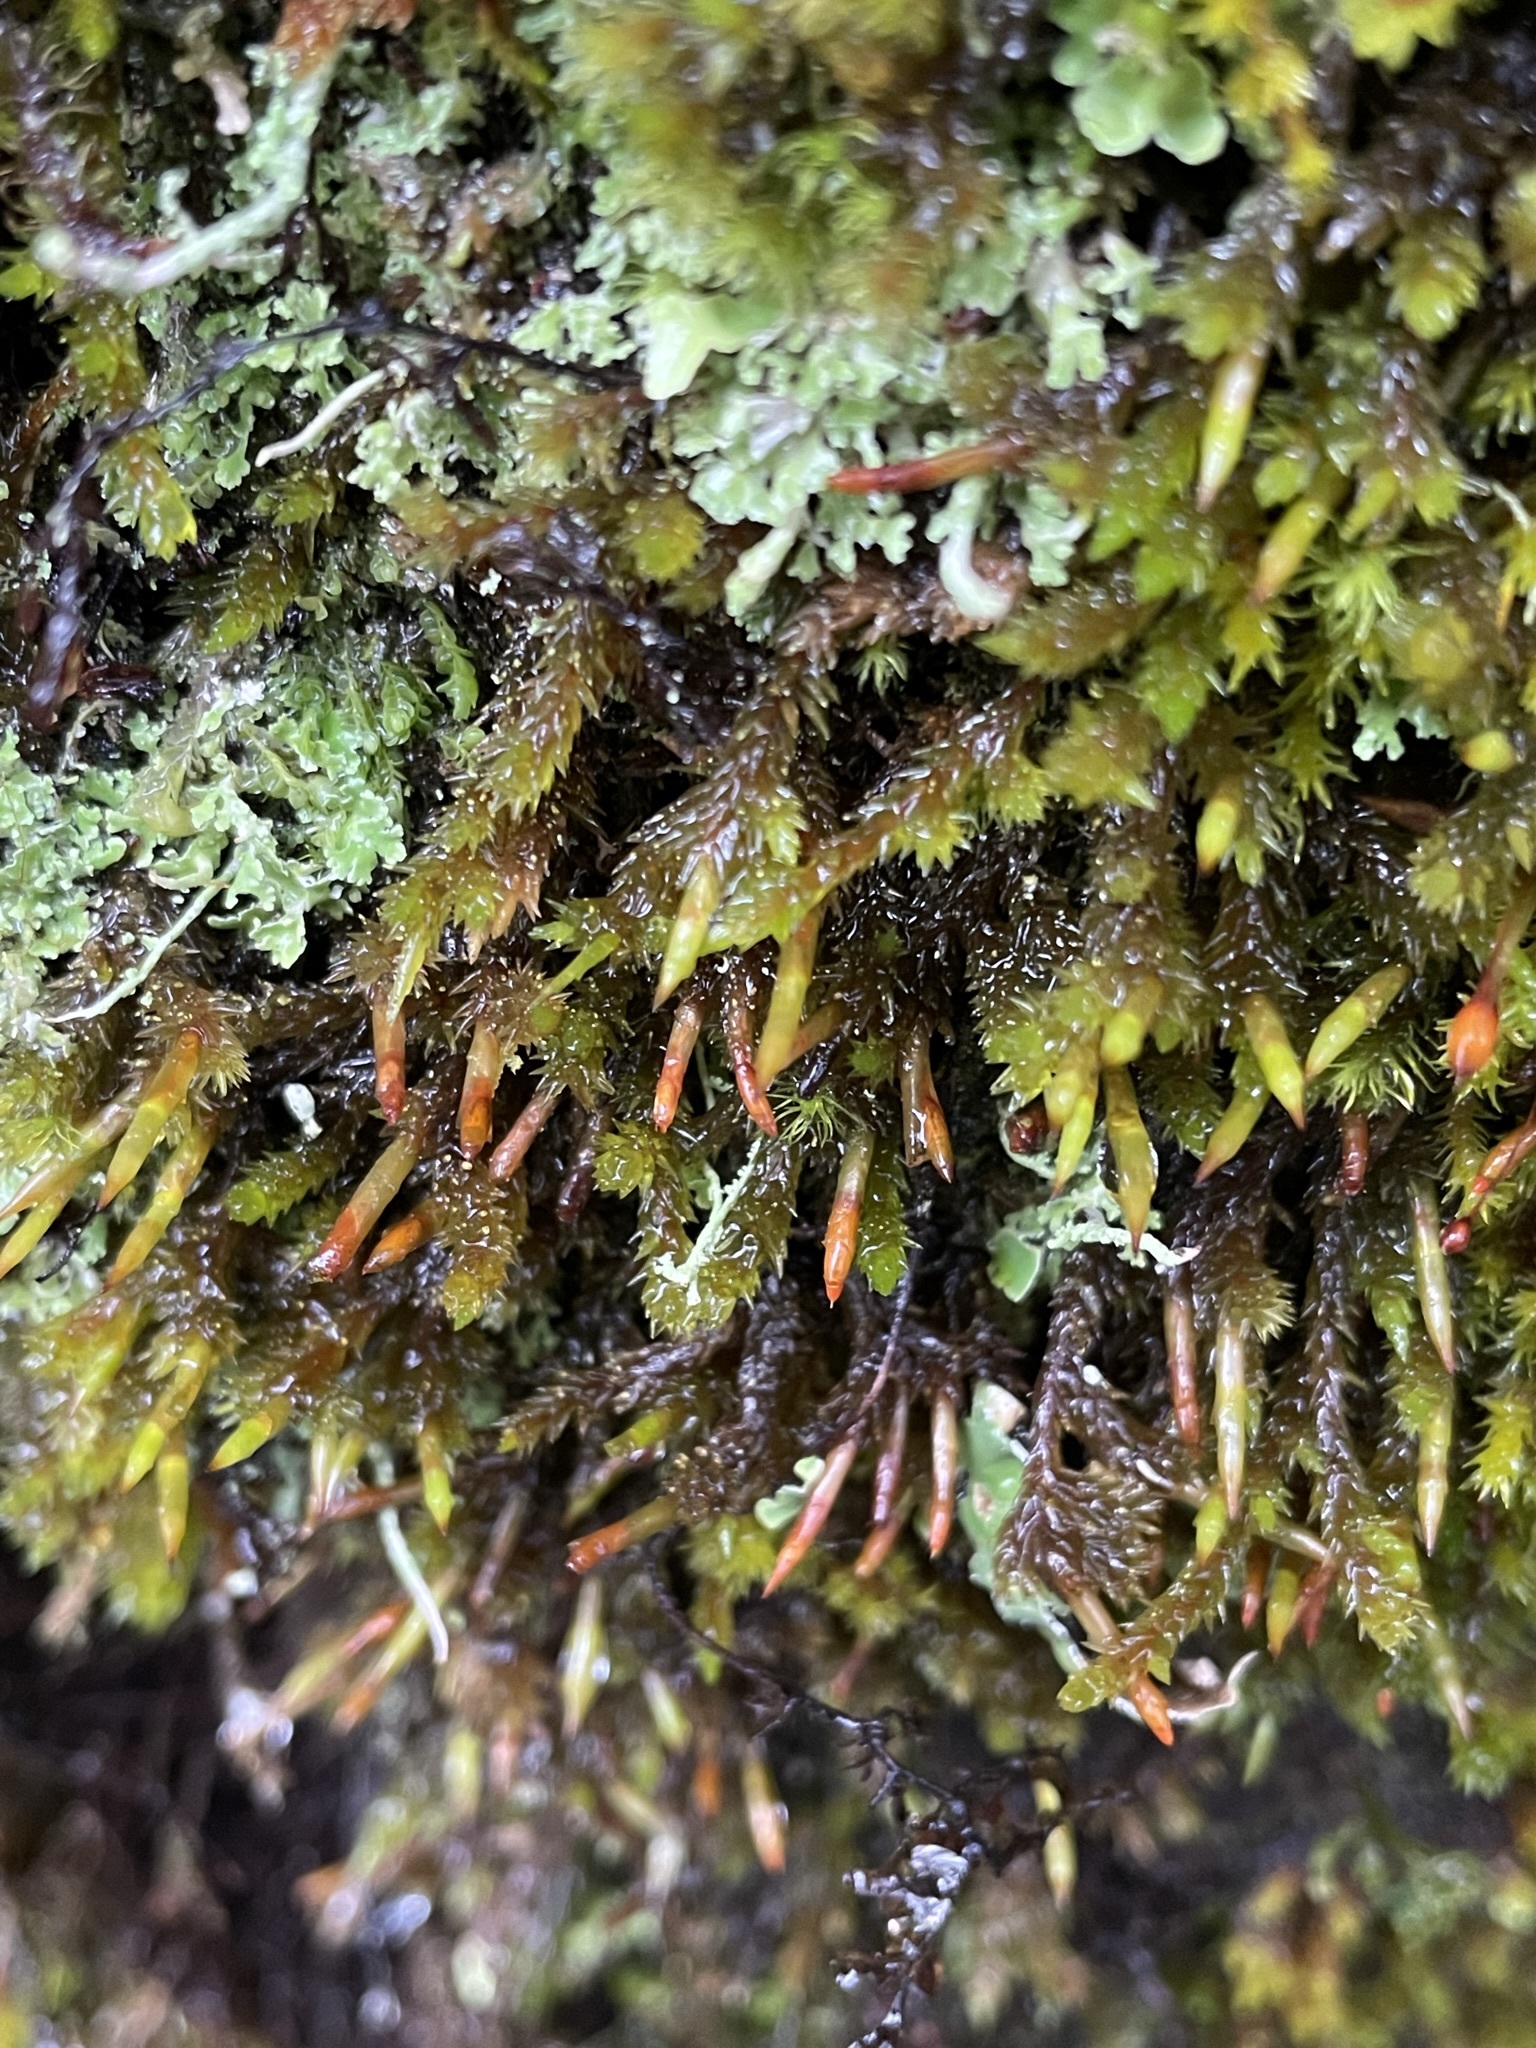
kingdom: Plantae
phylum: Bryophyta
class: Bryopsida
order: Dicranales
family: Dicranaceae
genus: Dicnemon
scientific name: Dicnemon calycinum
